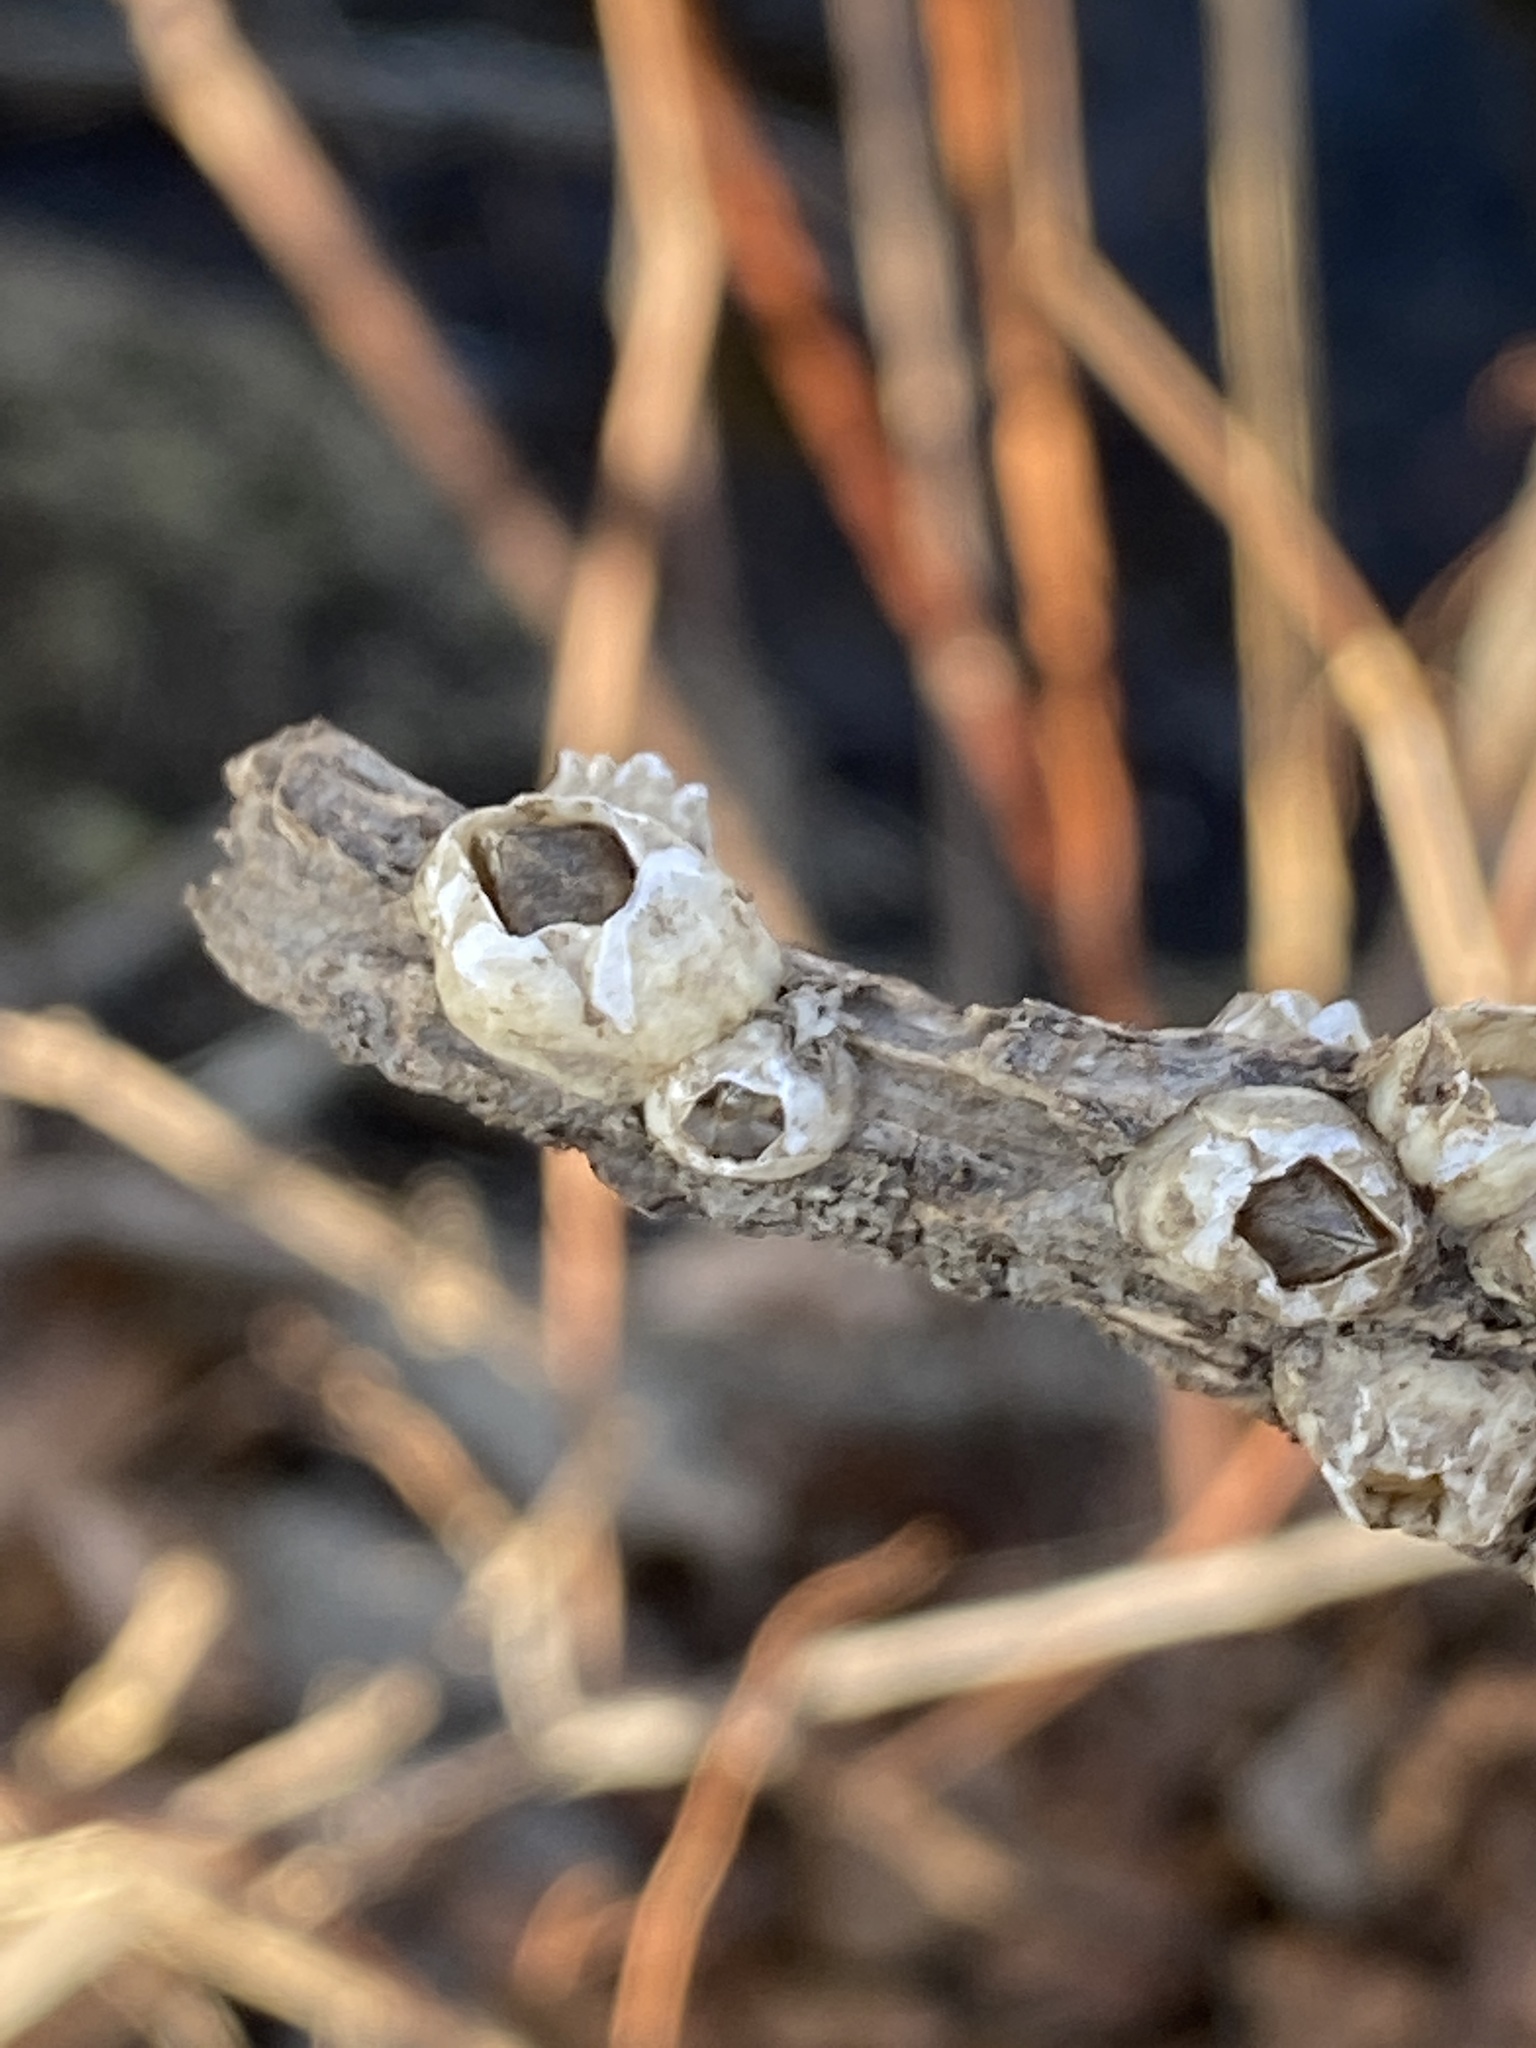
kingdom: Animalia
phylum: Arthropoda
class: Maxillopoda
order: Sessilia
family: Balanidae
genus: Amphibalanus
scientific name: Amphibalanus improvisus
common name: Bay barnacle
